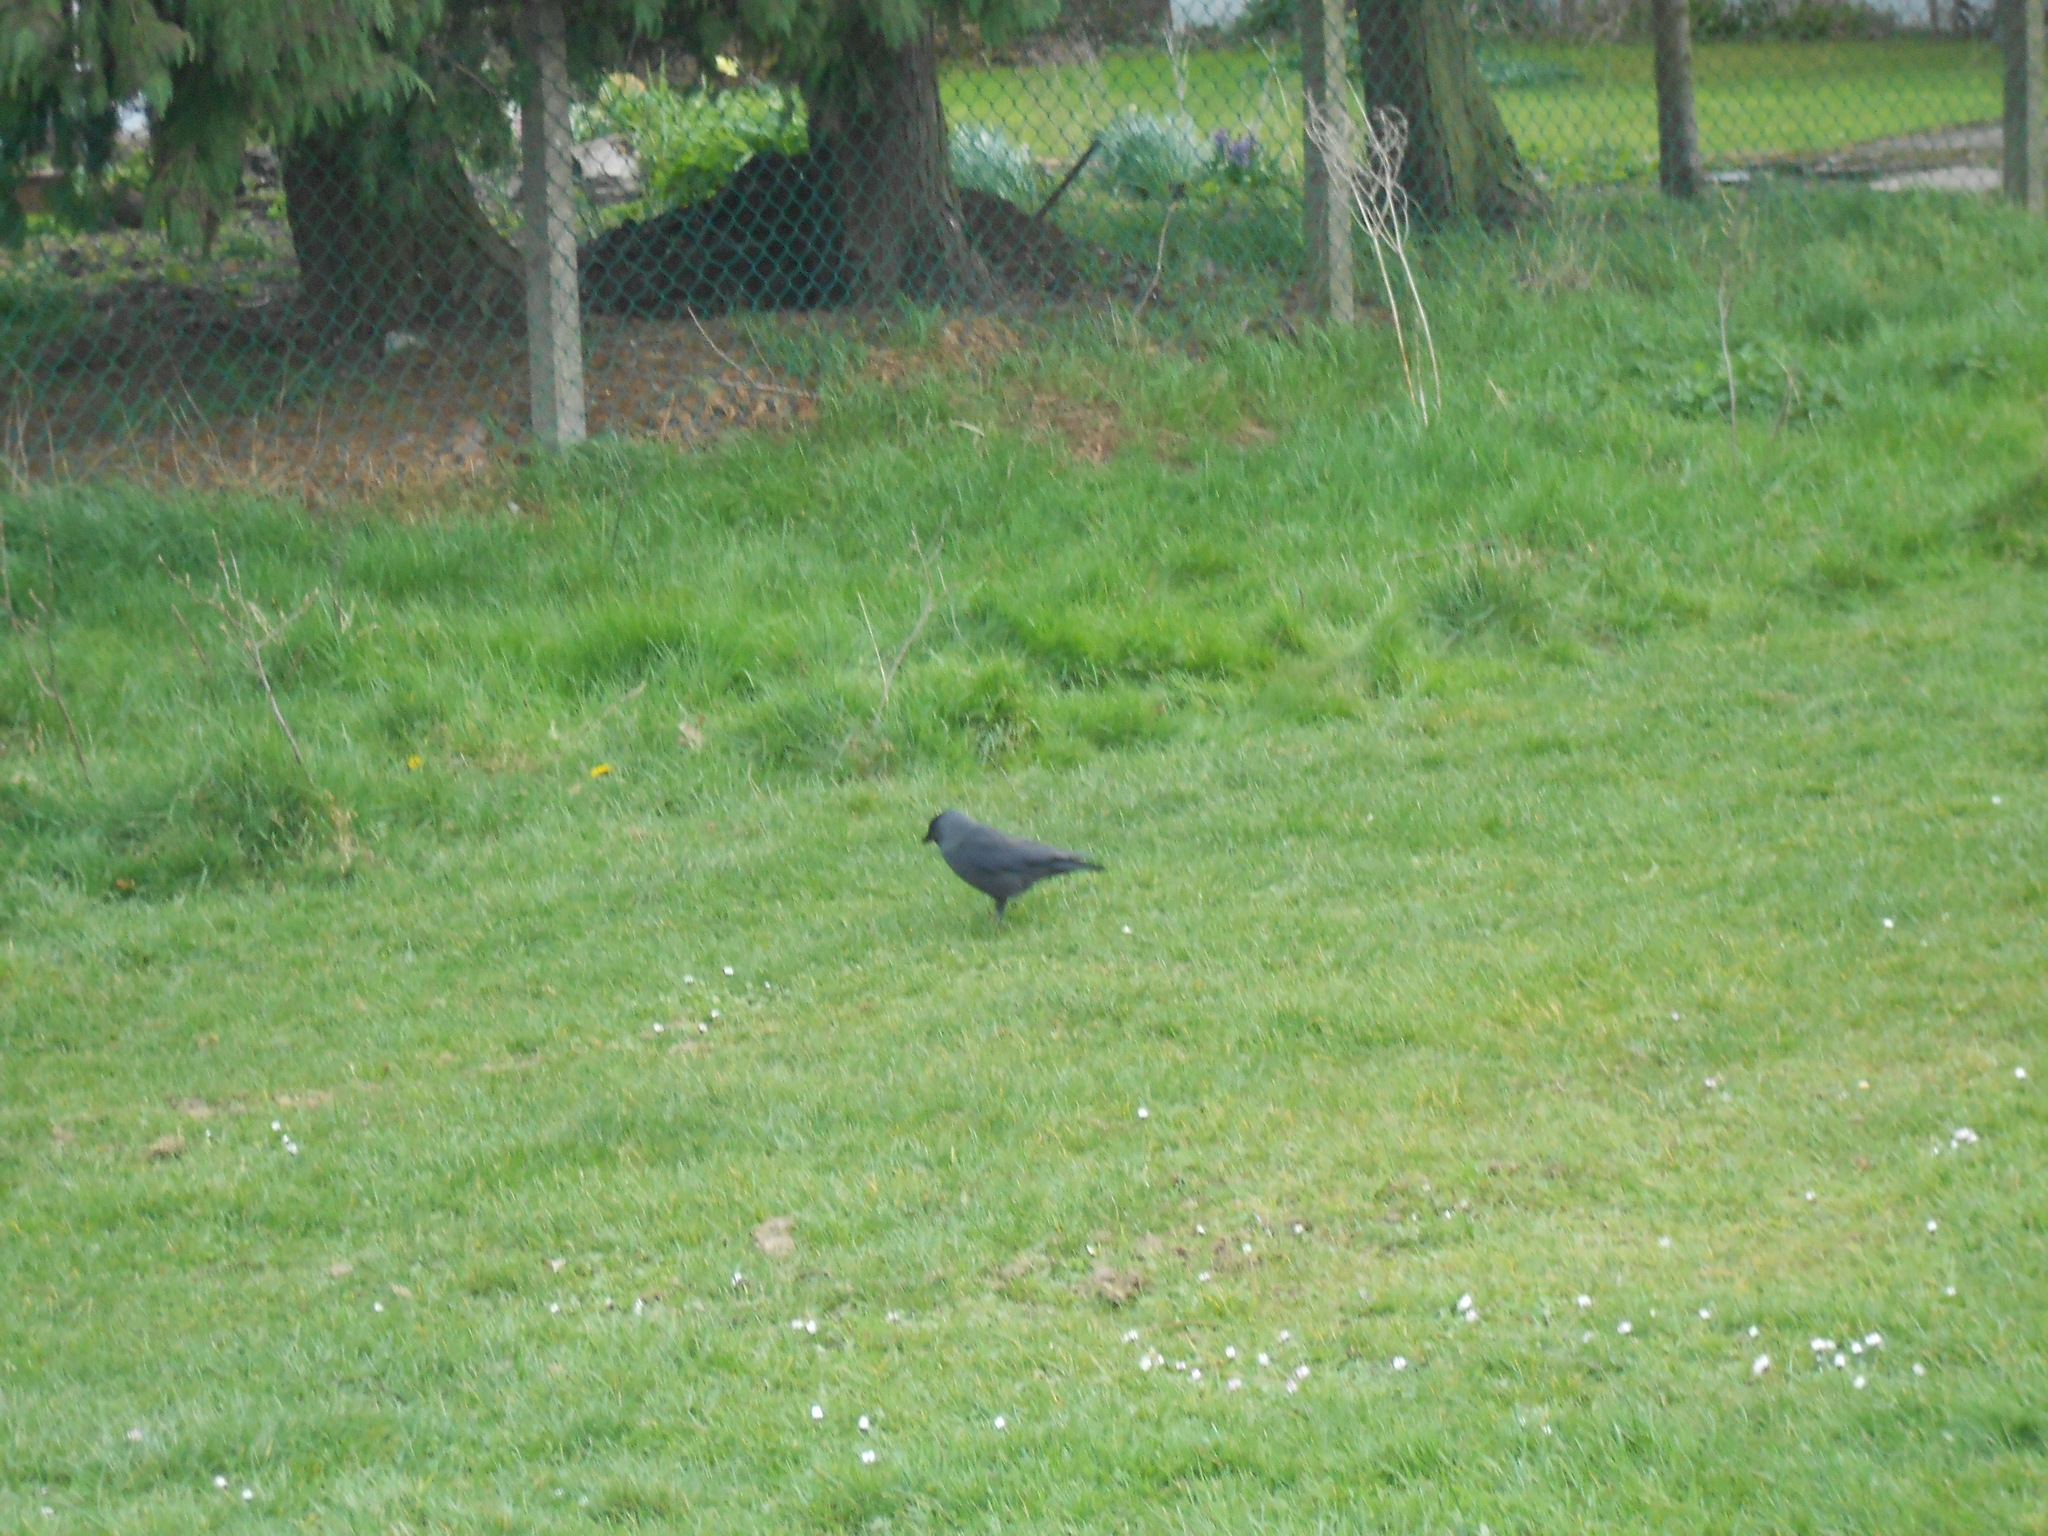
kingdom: Animalia
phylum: Chordata
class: Aves
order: Passeriformes
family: Corvidae
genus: Coloeus
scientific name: Coloeus monedula
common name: Western jackdaw
